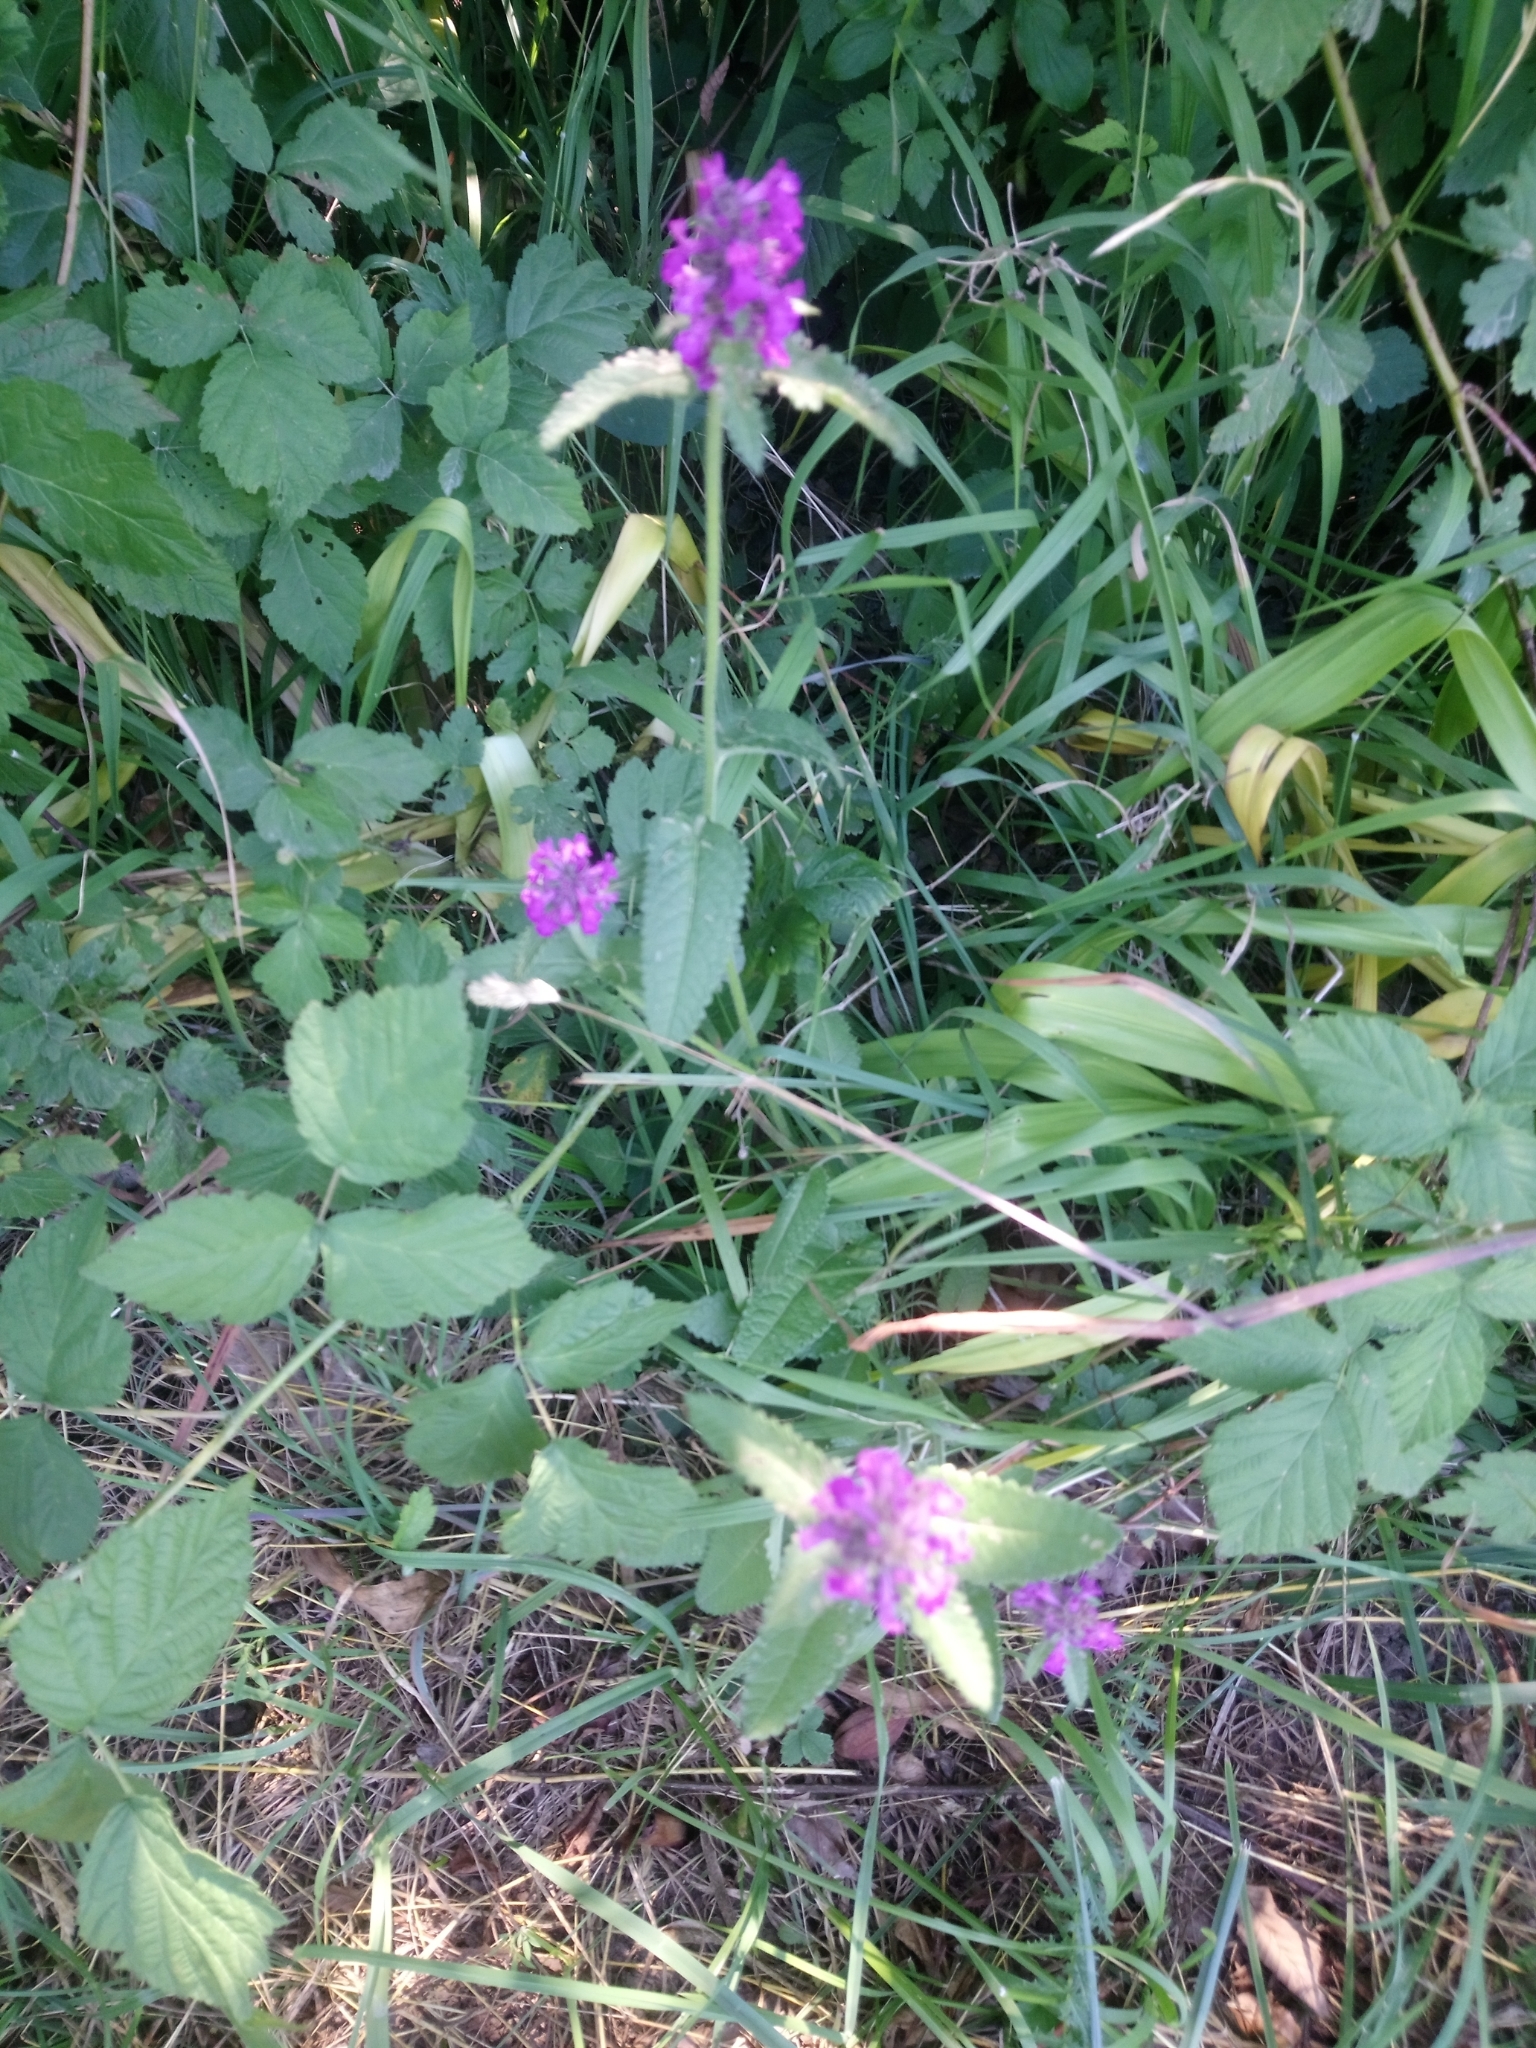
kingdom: Plantae
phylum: Tracheophyta
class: Magnoliopsida
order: Lamiales
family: Lamiaceae
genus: Betonica
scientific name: Betonica officinalis
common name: Bishop's-wort
